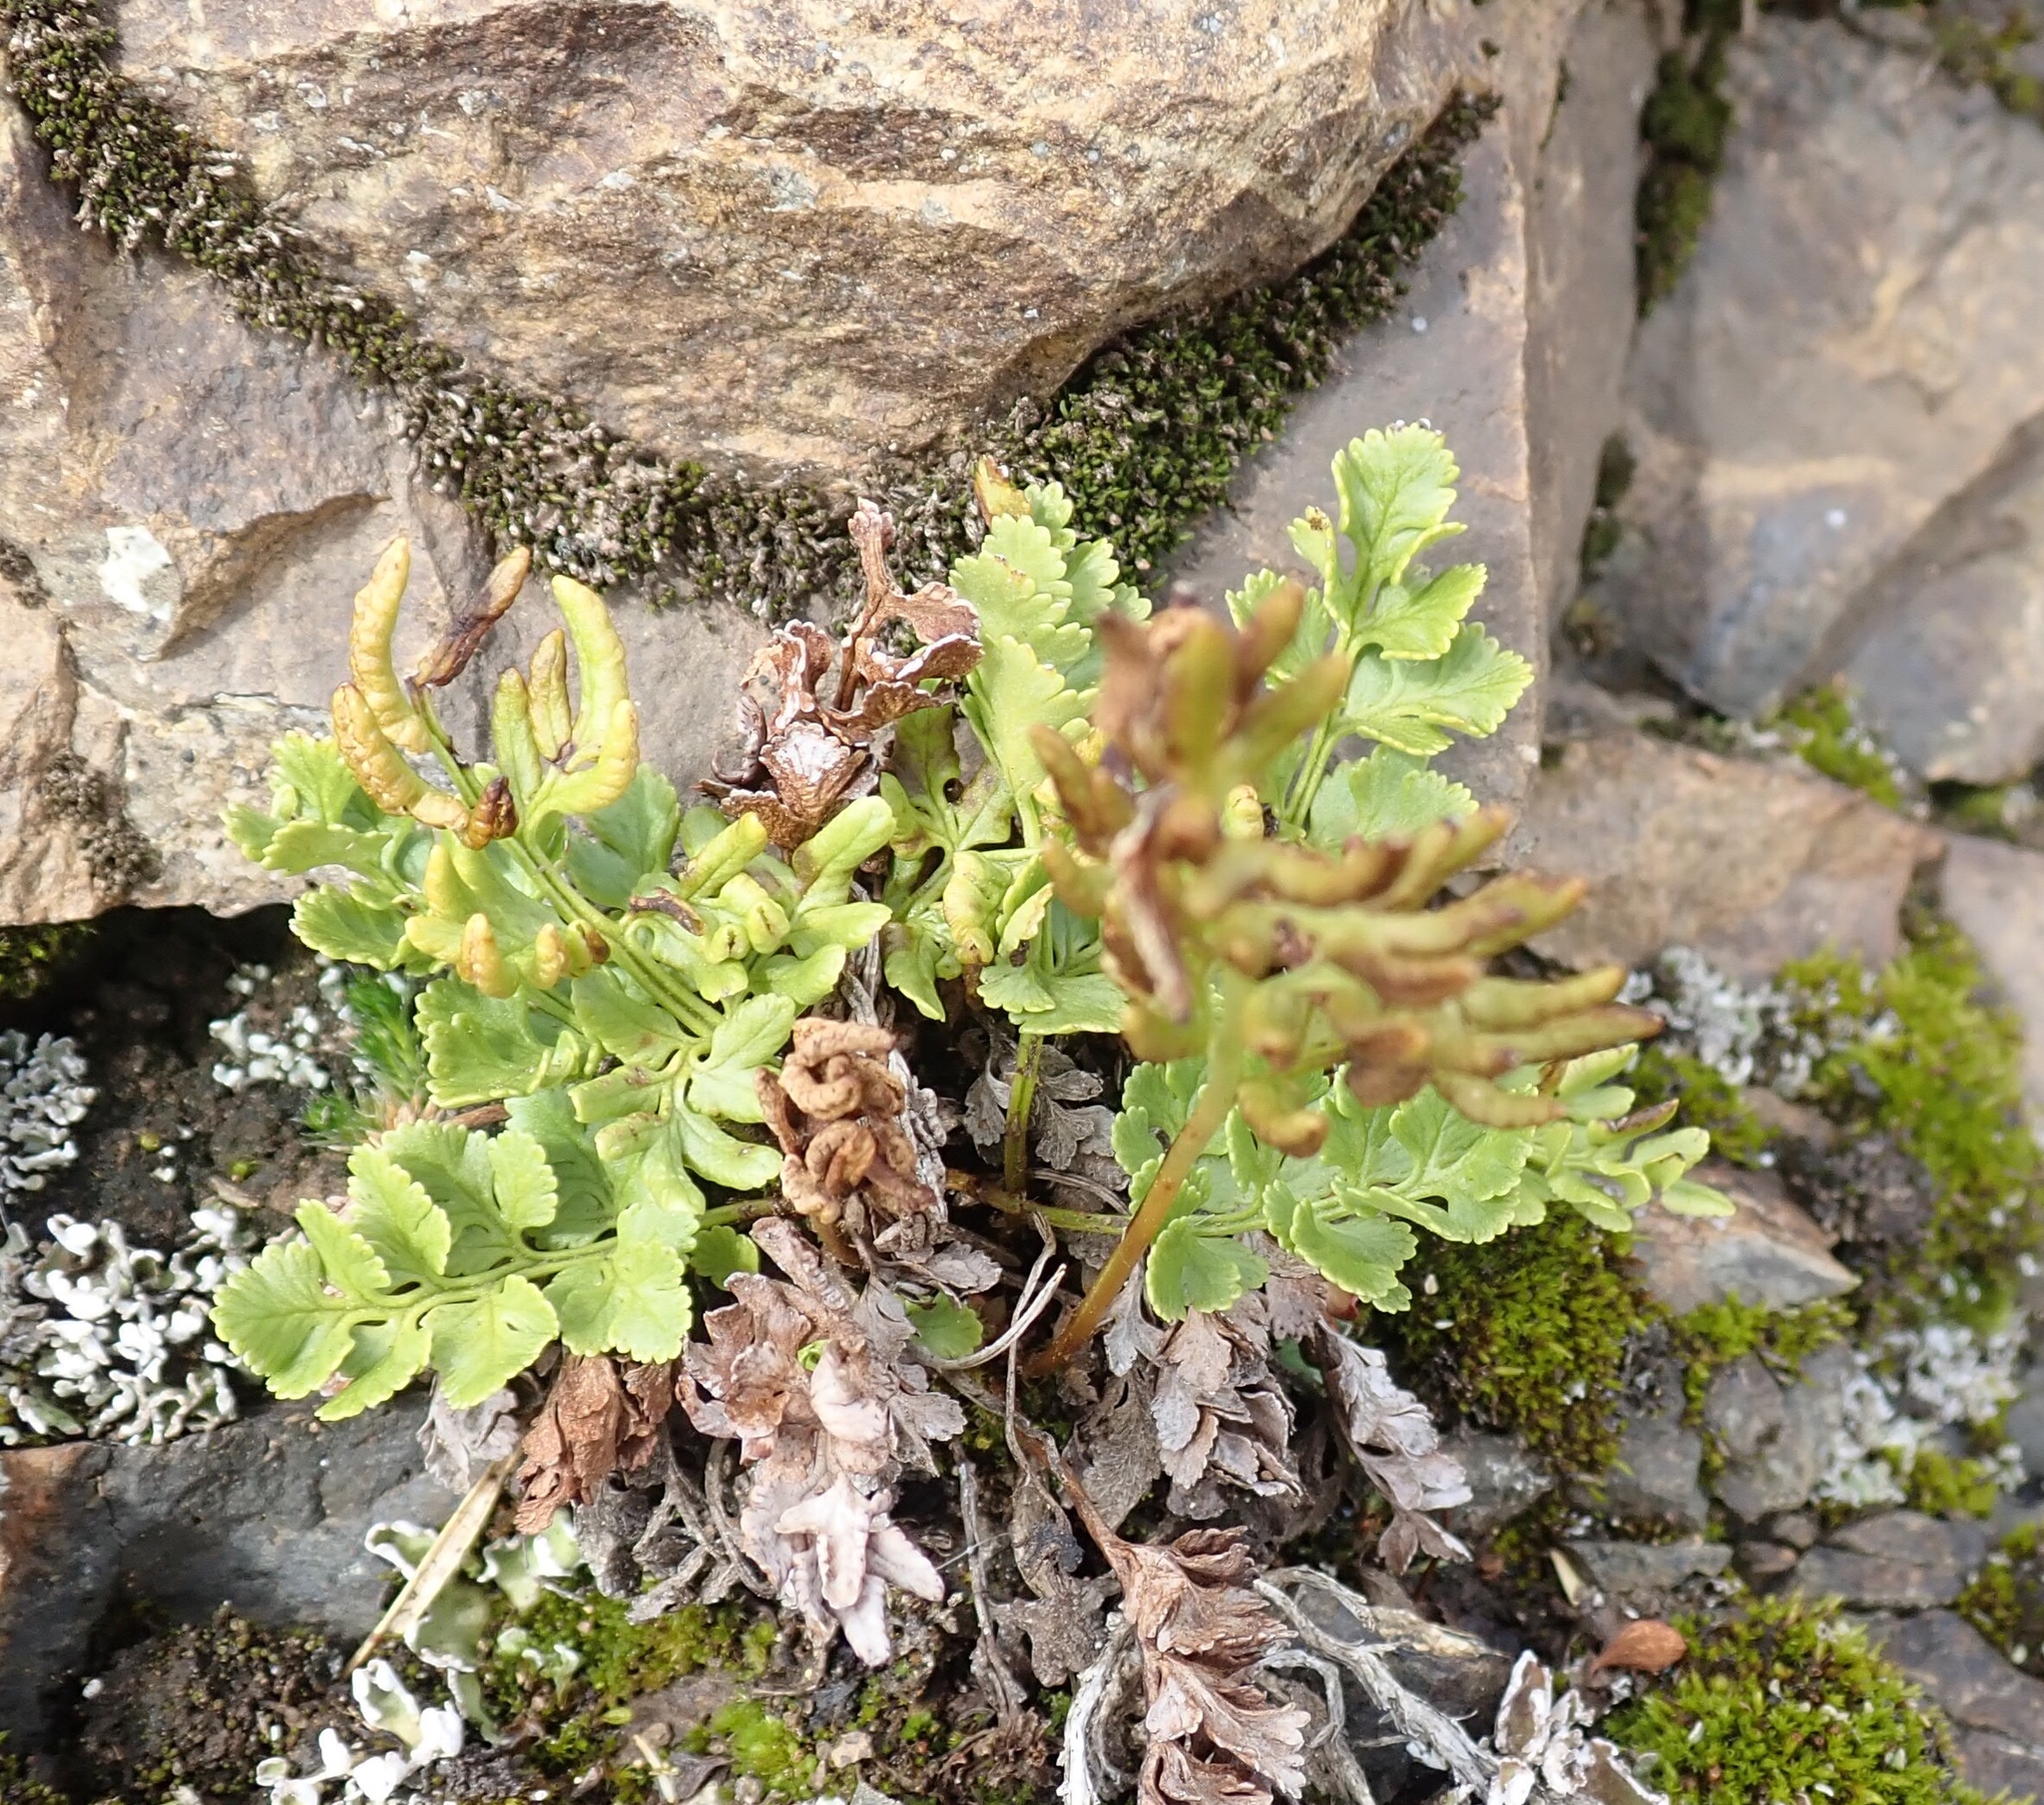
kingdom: Plantae
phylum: Tracheophyta
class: Polypodiopsida
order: Polypodiales
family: Pteridaceae
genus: Cryptogramma
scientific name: Cryptogramma acrostichoides
